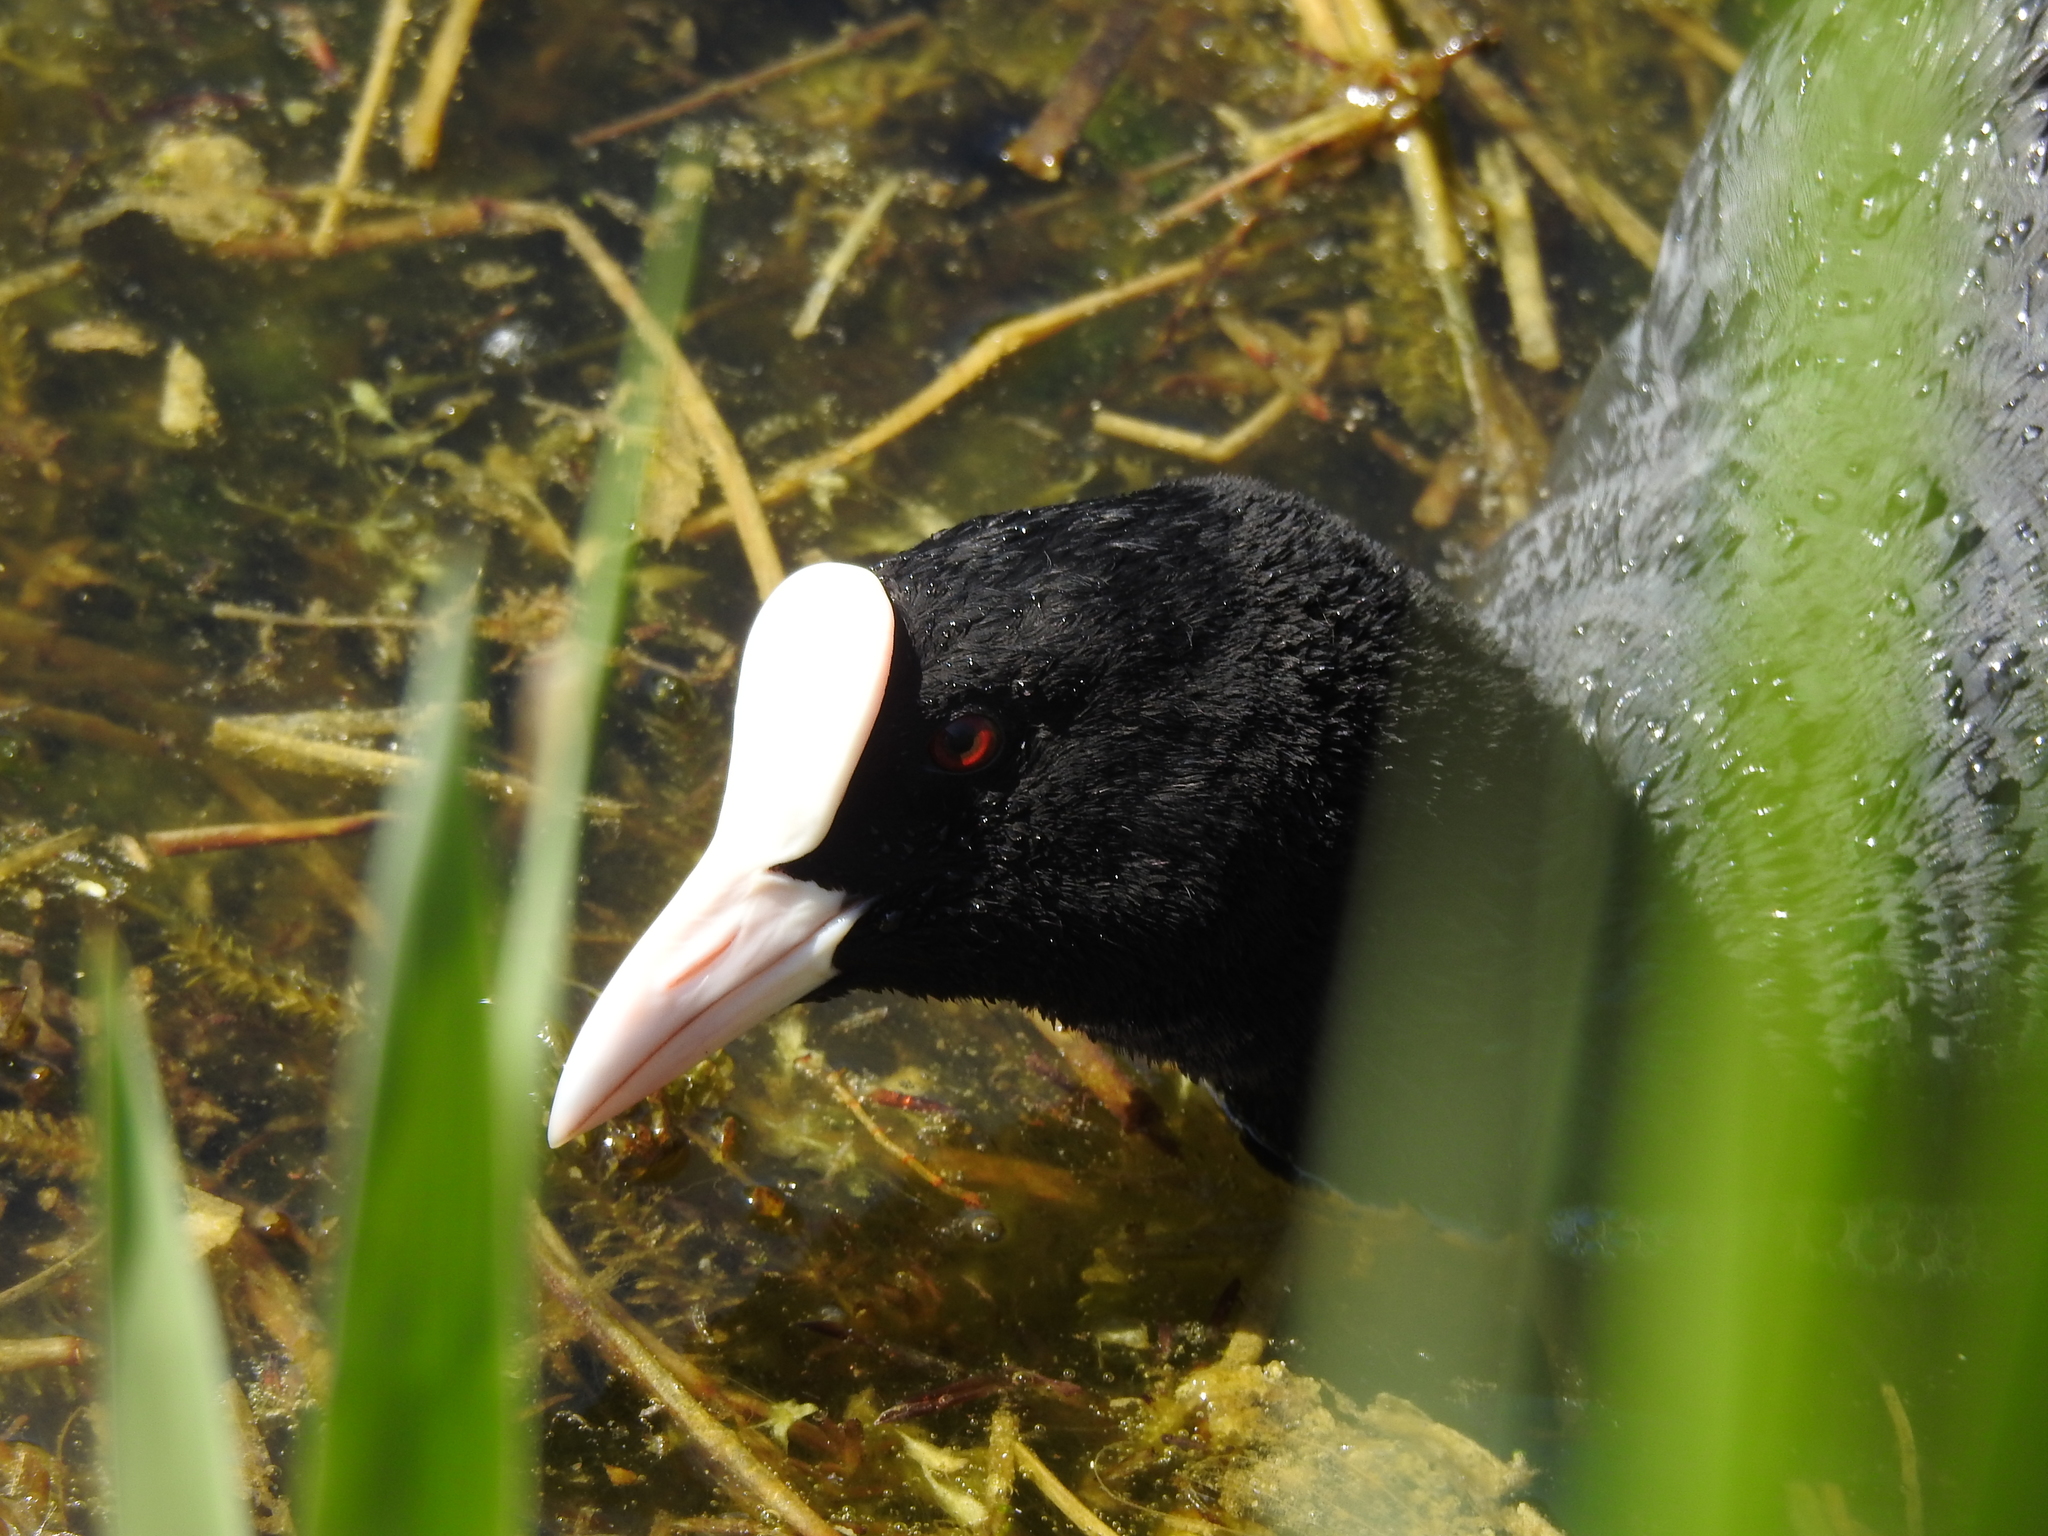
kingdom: Animalia
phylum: Chordata
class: Aves
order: Gruiformes
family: Rallidae
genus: Fulica
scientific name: Fulica atra
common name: Eurasian coot
